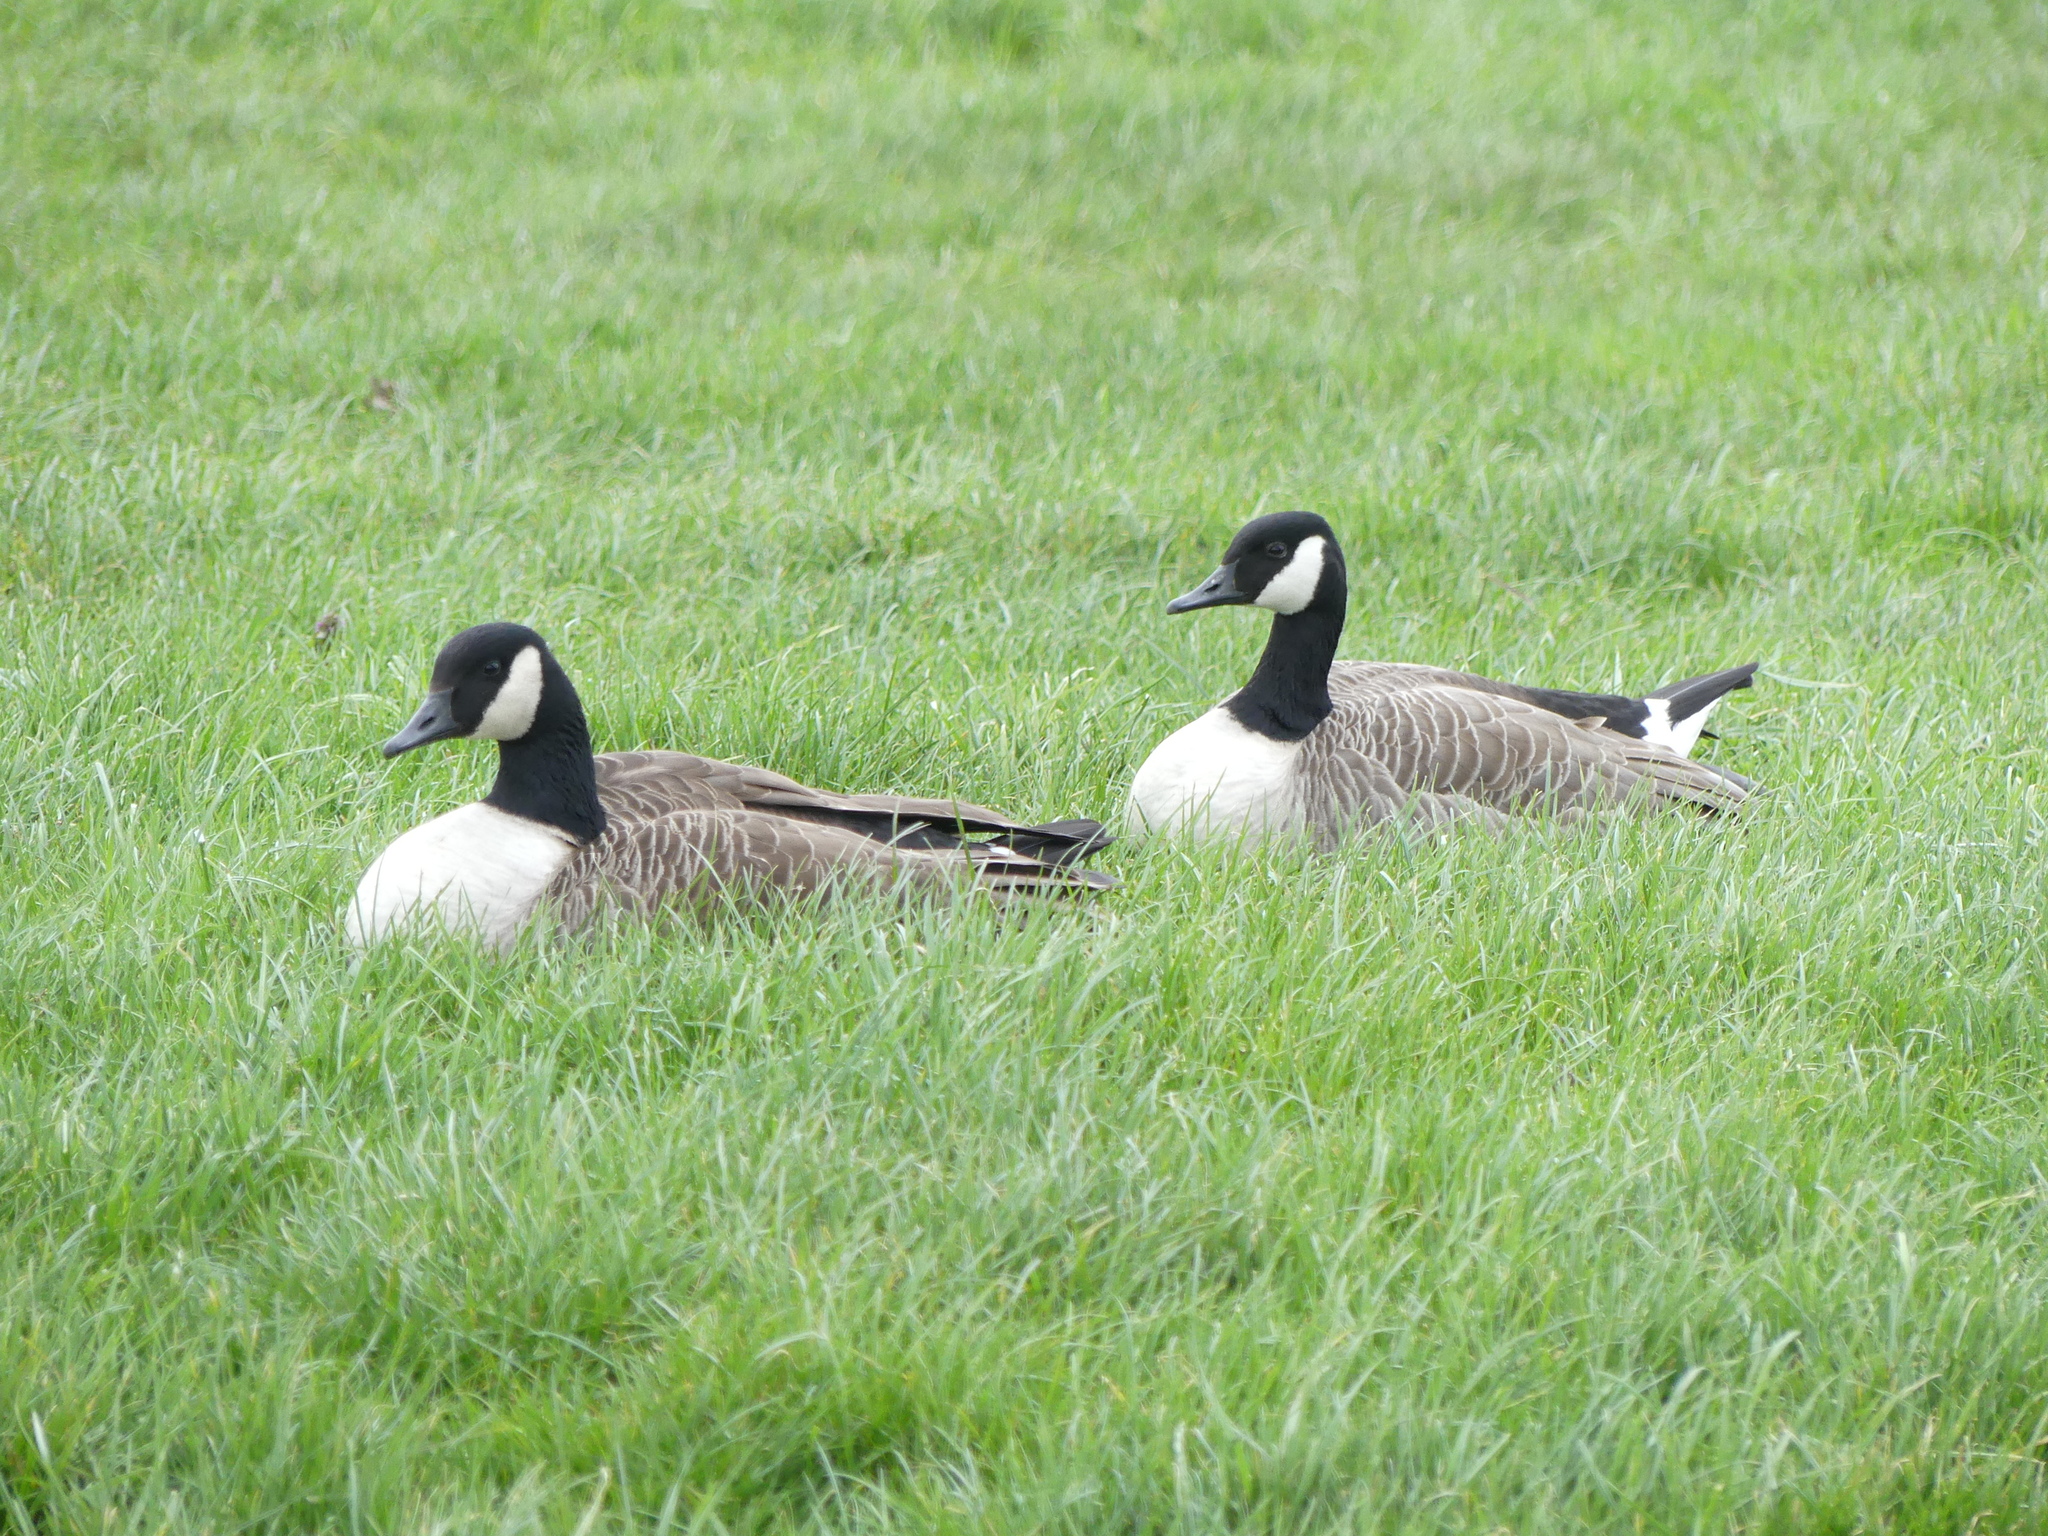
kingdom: Animalia
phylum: Chordata
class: Aves
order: Anseriformes
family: Anatidae
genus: Branta
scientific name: Branta canadensis
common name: Canada goose
